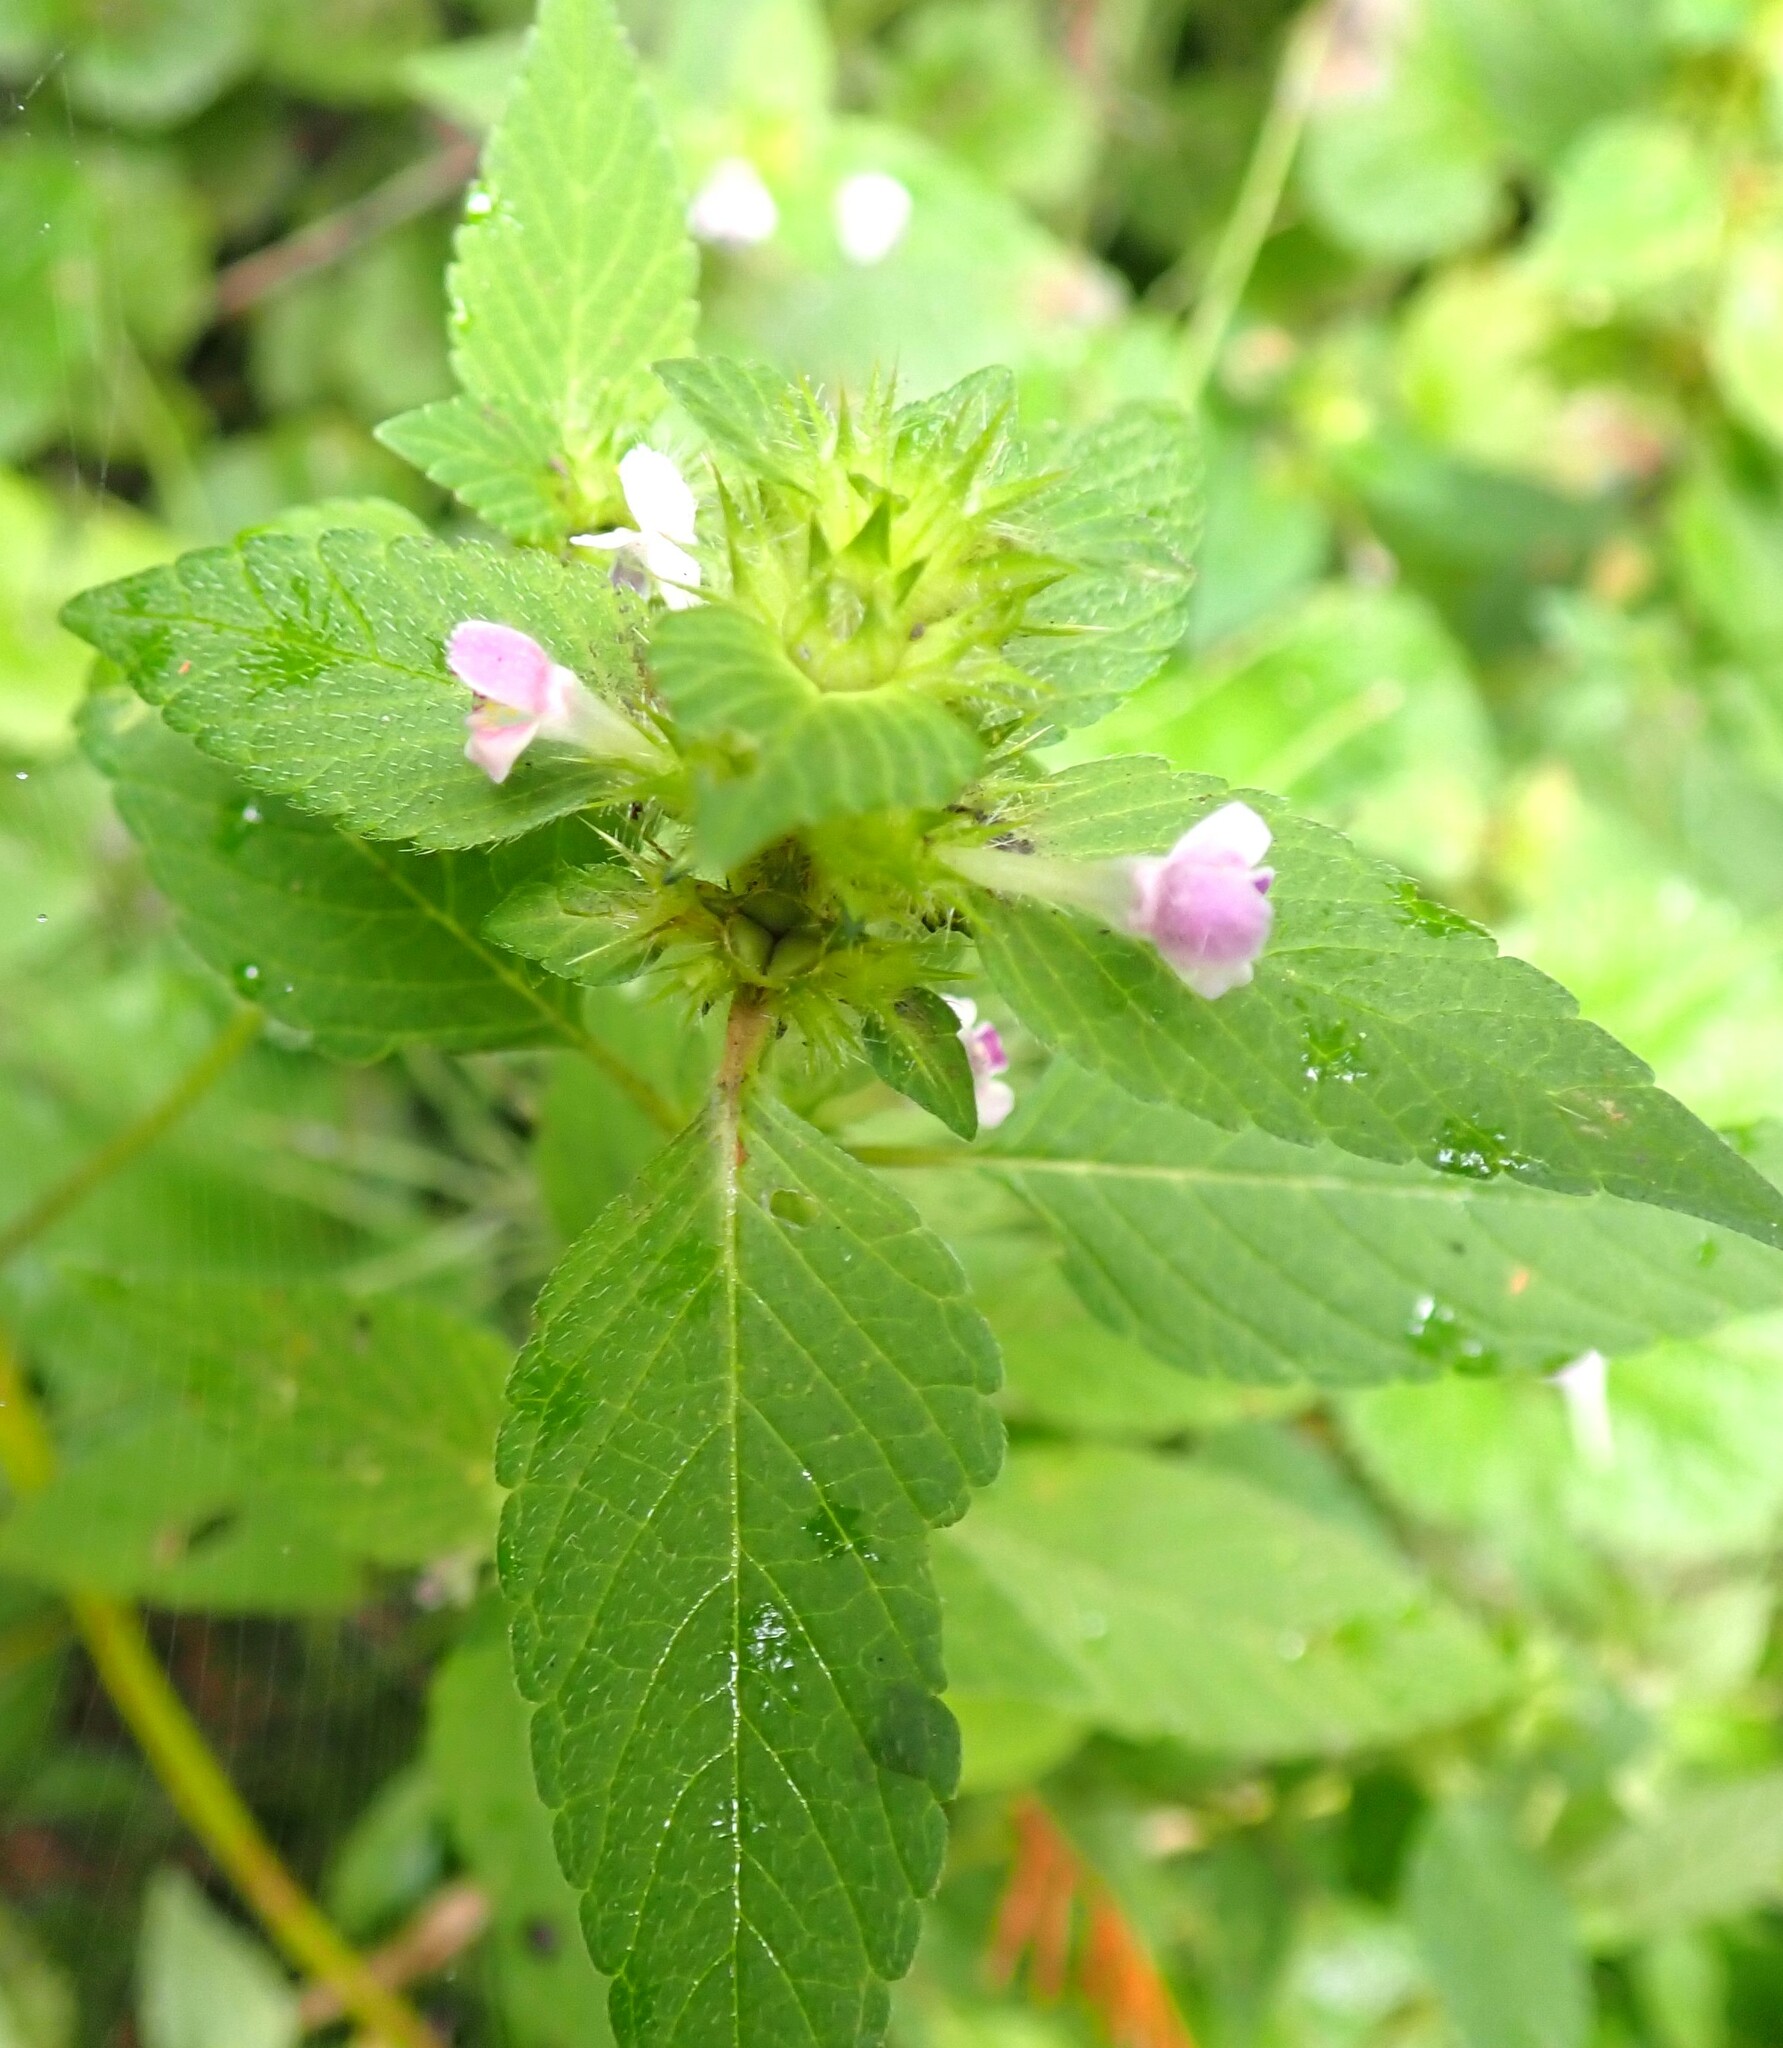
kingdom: Plantae
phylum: Tracheophyta
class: Magnoliopsida
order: Lamiales
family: Lamiaceae
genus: Galeopsis
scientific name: Galeopsis bifida
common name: Bifid hemp-nettle
